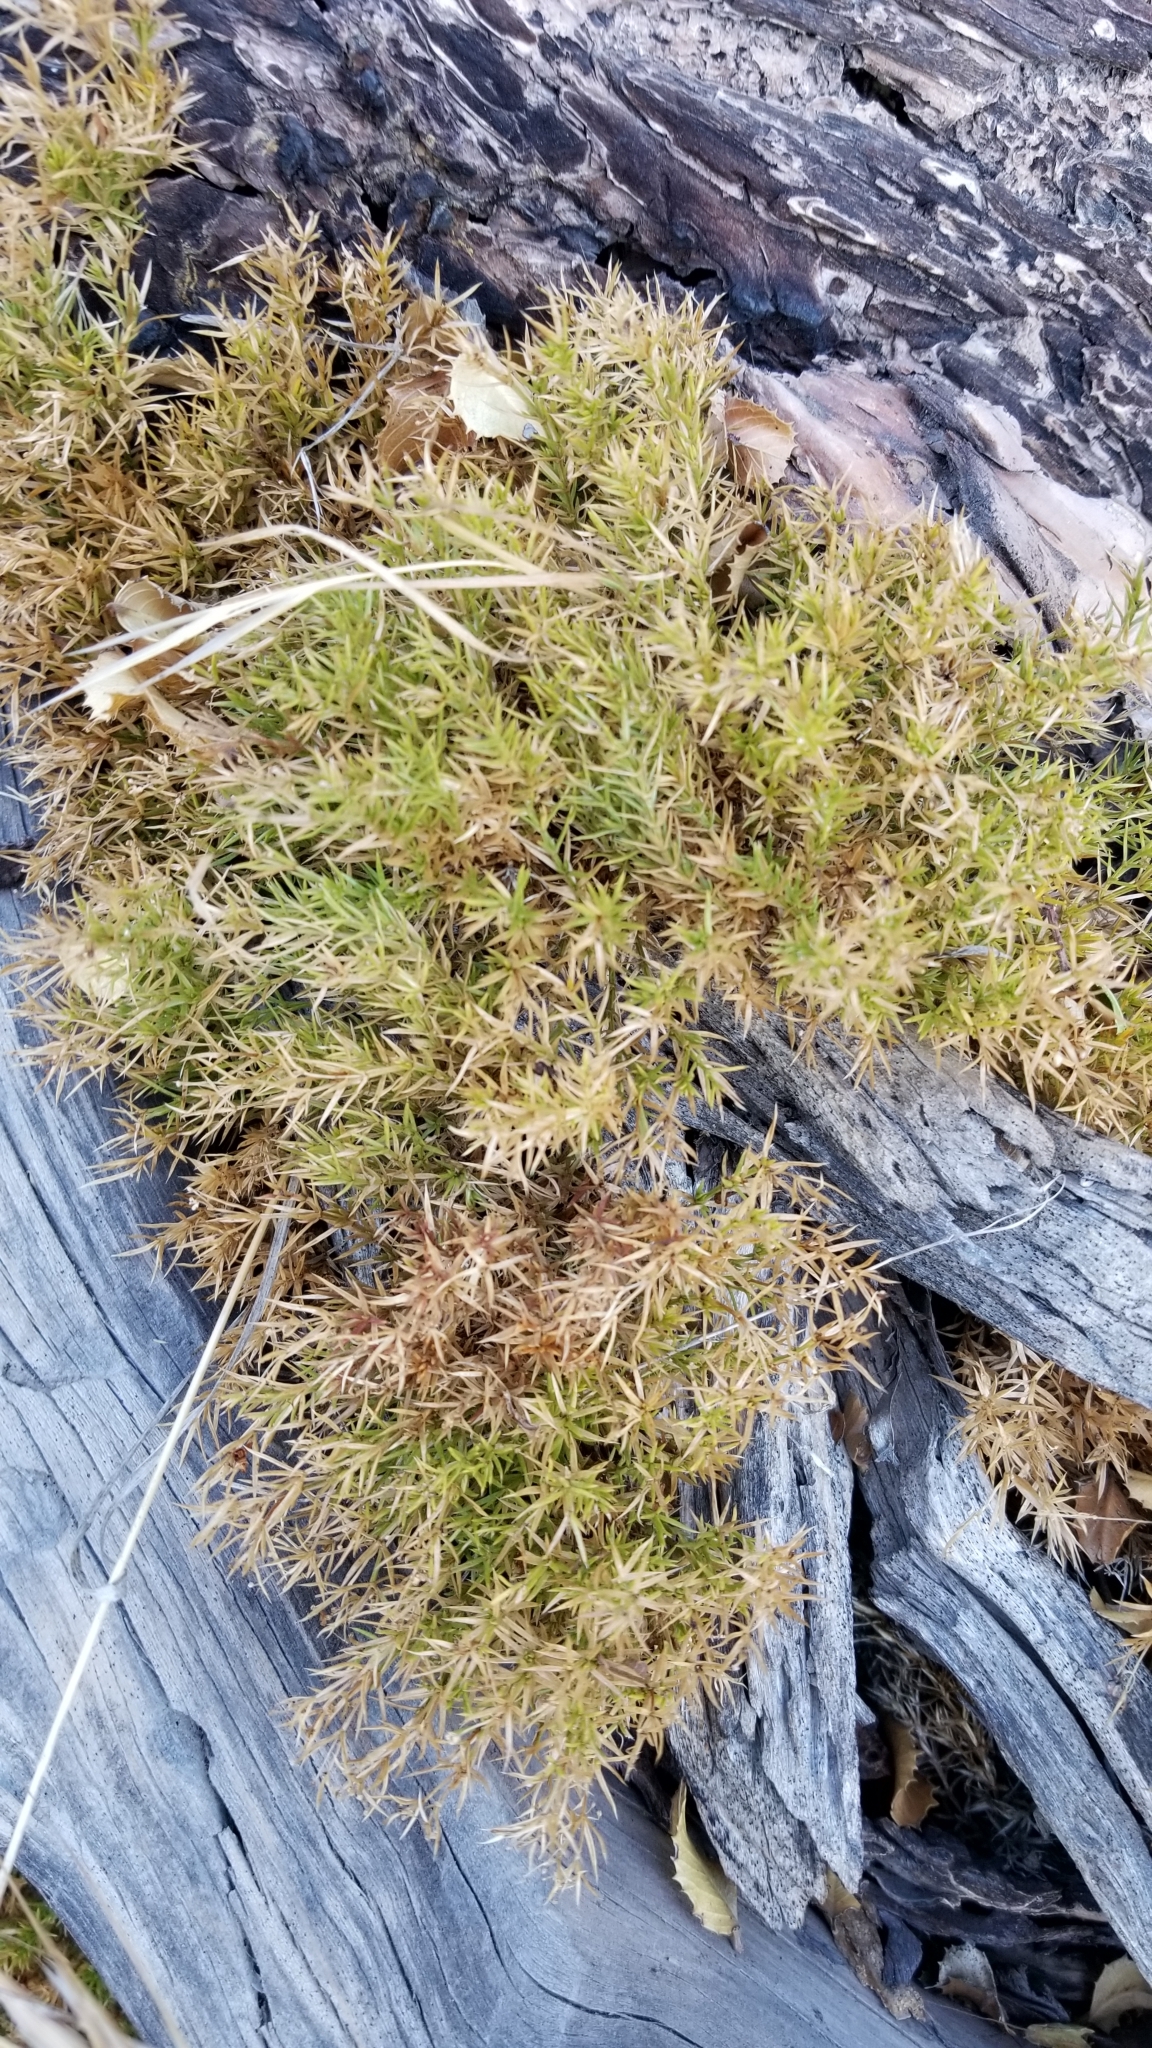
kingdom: Plantae
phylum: Tracheophyta
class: Magnoliopsida
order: Gentianales
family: Rubiaceae
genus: Galium
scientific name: Galium andrewsii
